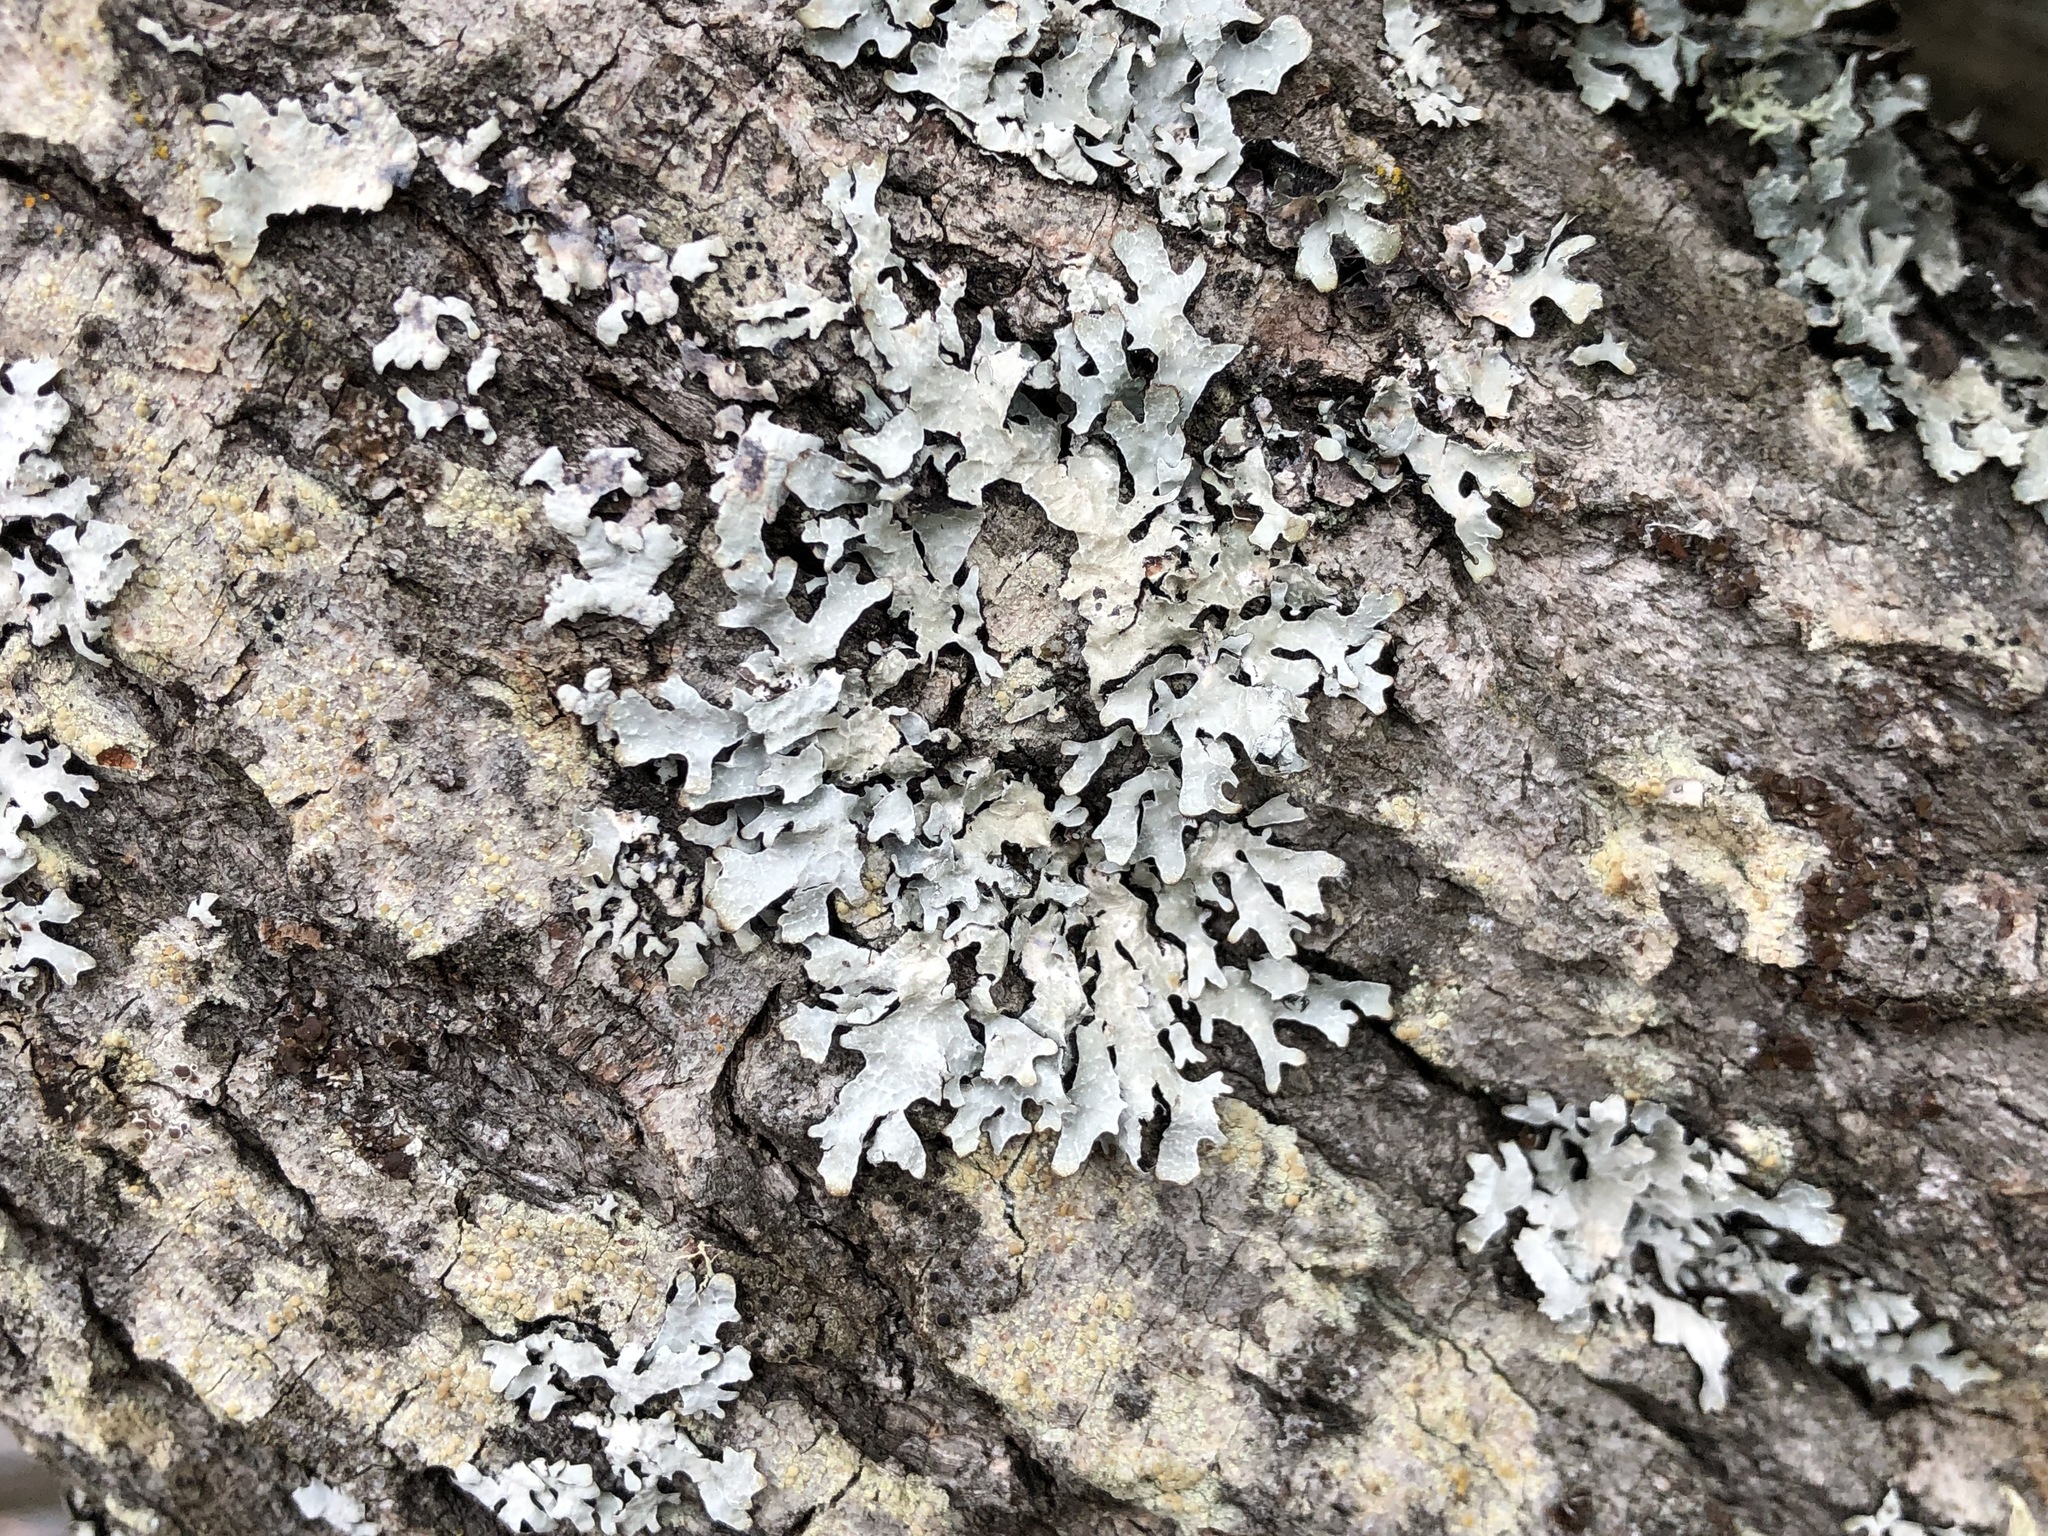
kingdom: Fungi
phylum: Ascomycota
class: Lecanoromycetes
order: Lecanorales
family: Parmeliaceae
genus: Parmelia
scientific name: Parmelia sulcata
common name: Netted shield lichen
